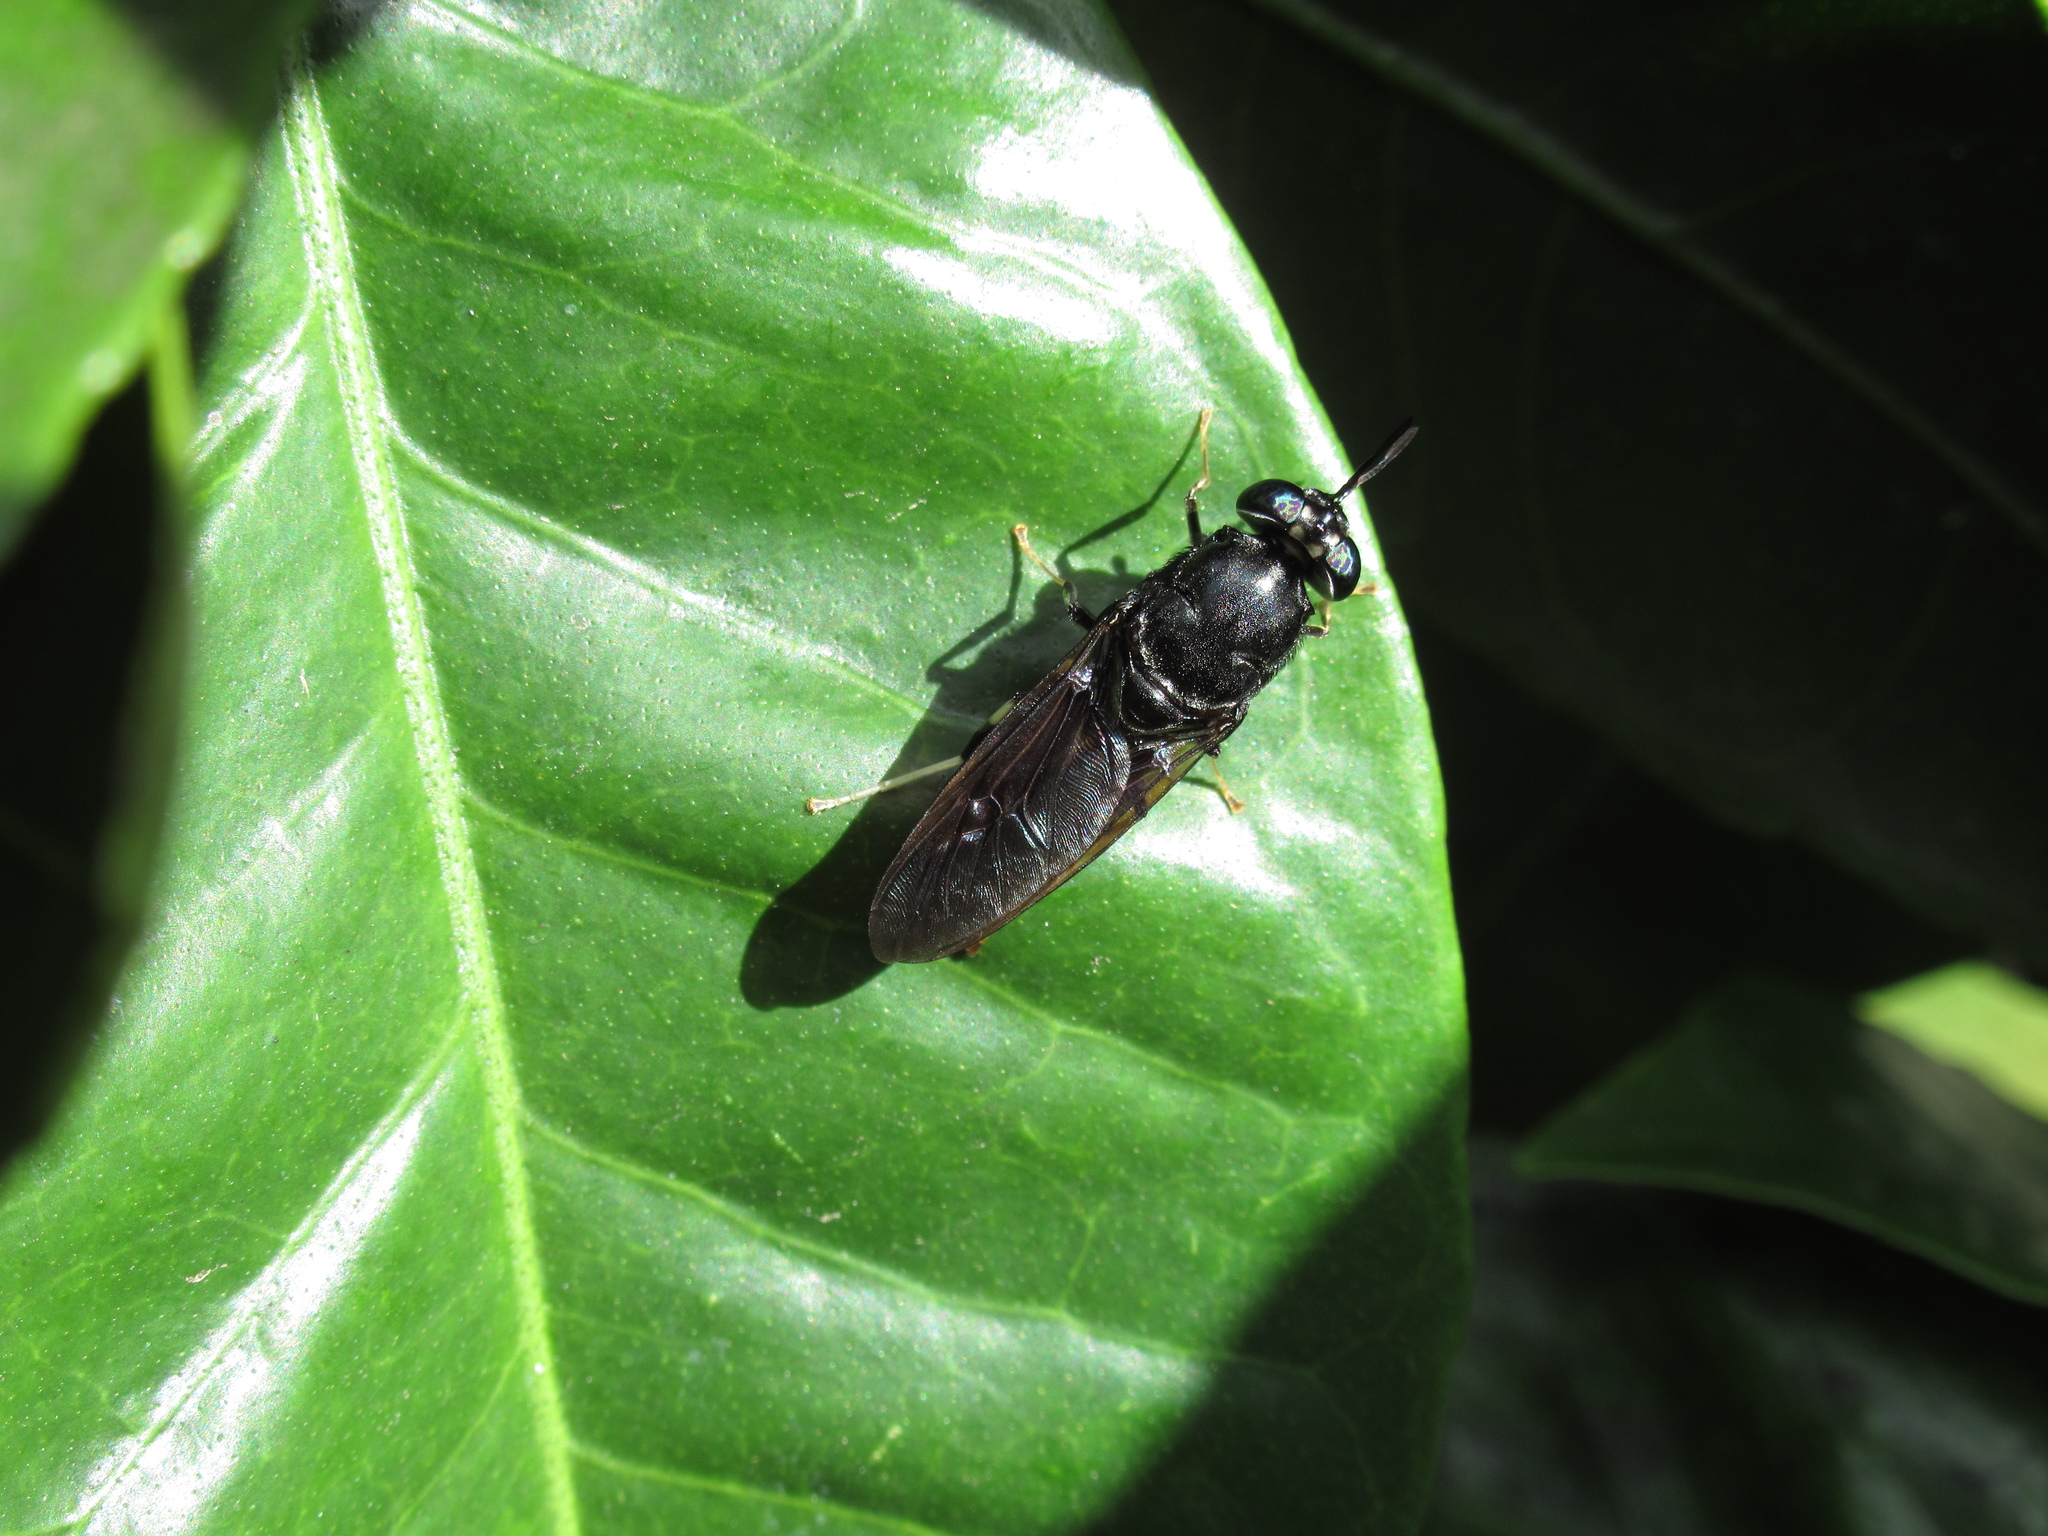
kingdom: Animalia
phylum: Arthropoda
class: Insecta
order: Diptera
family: Stratiomyidae
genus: Hermetia
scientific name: Hermetia illucens
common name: Black soldier fly
